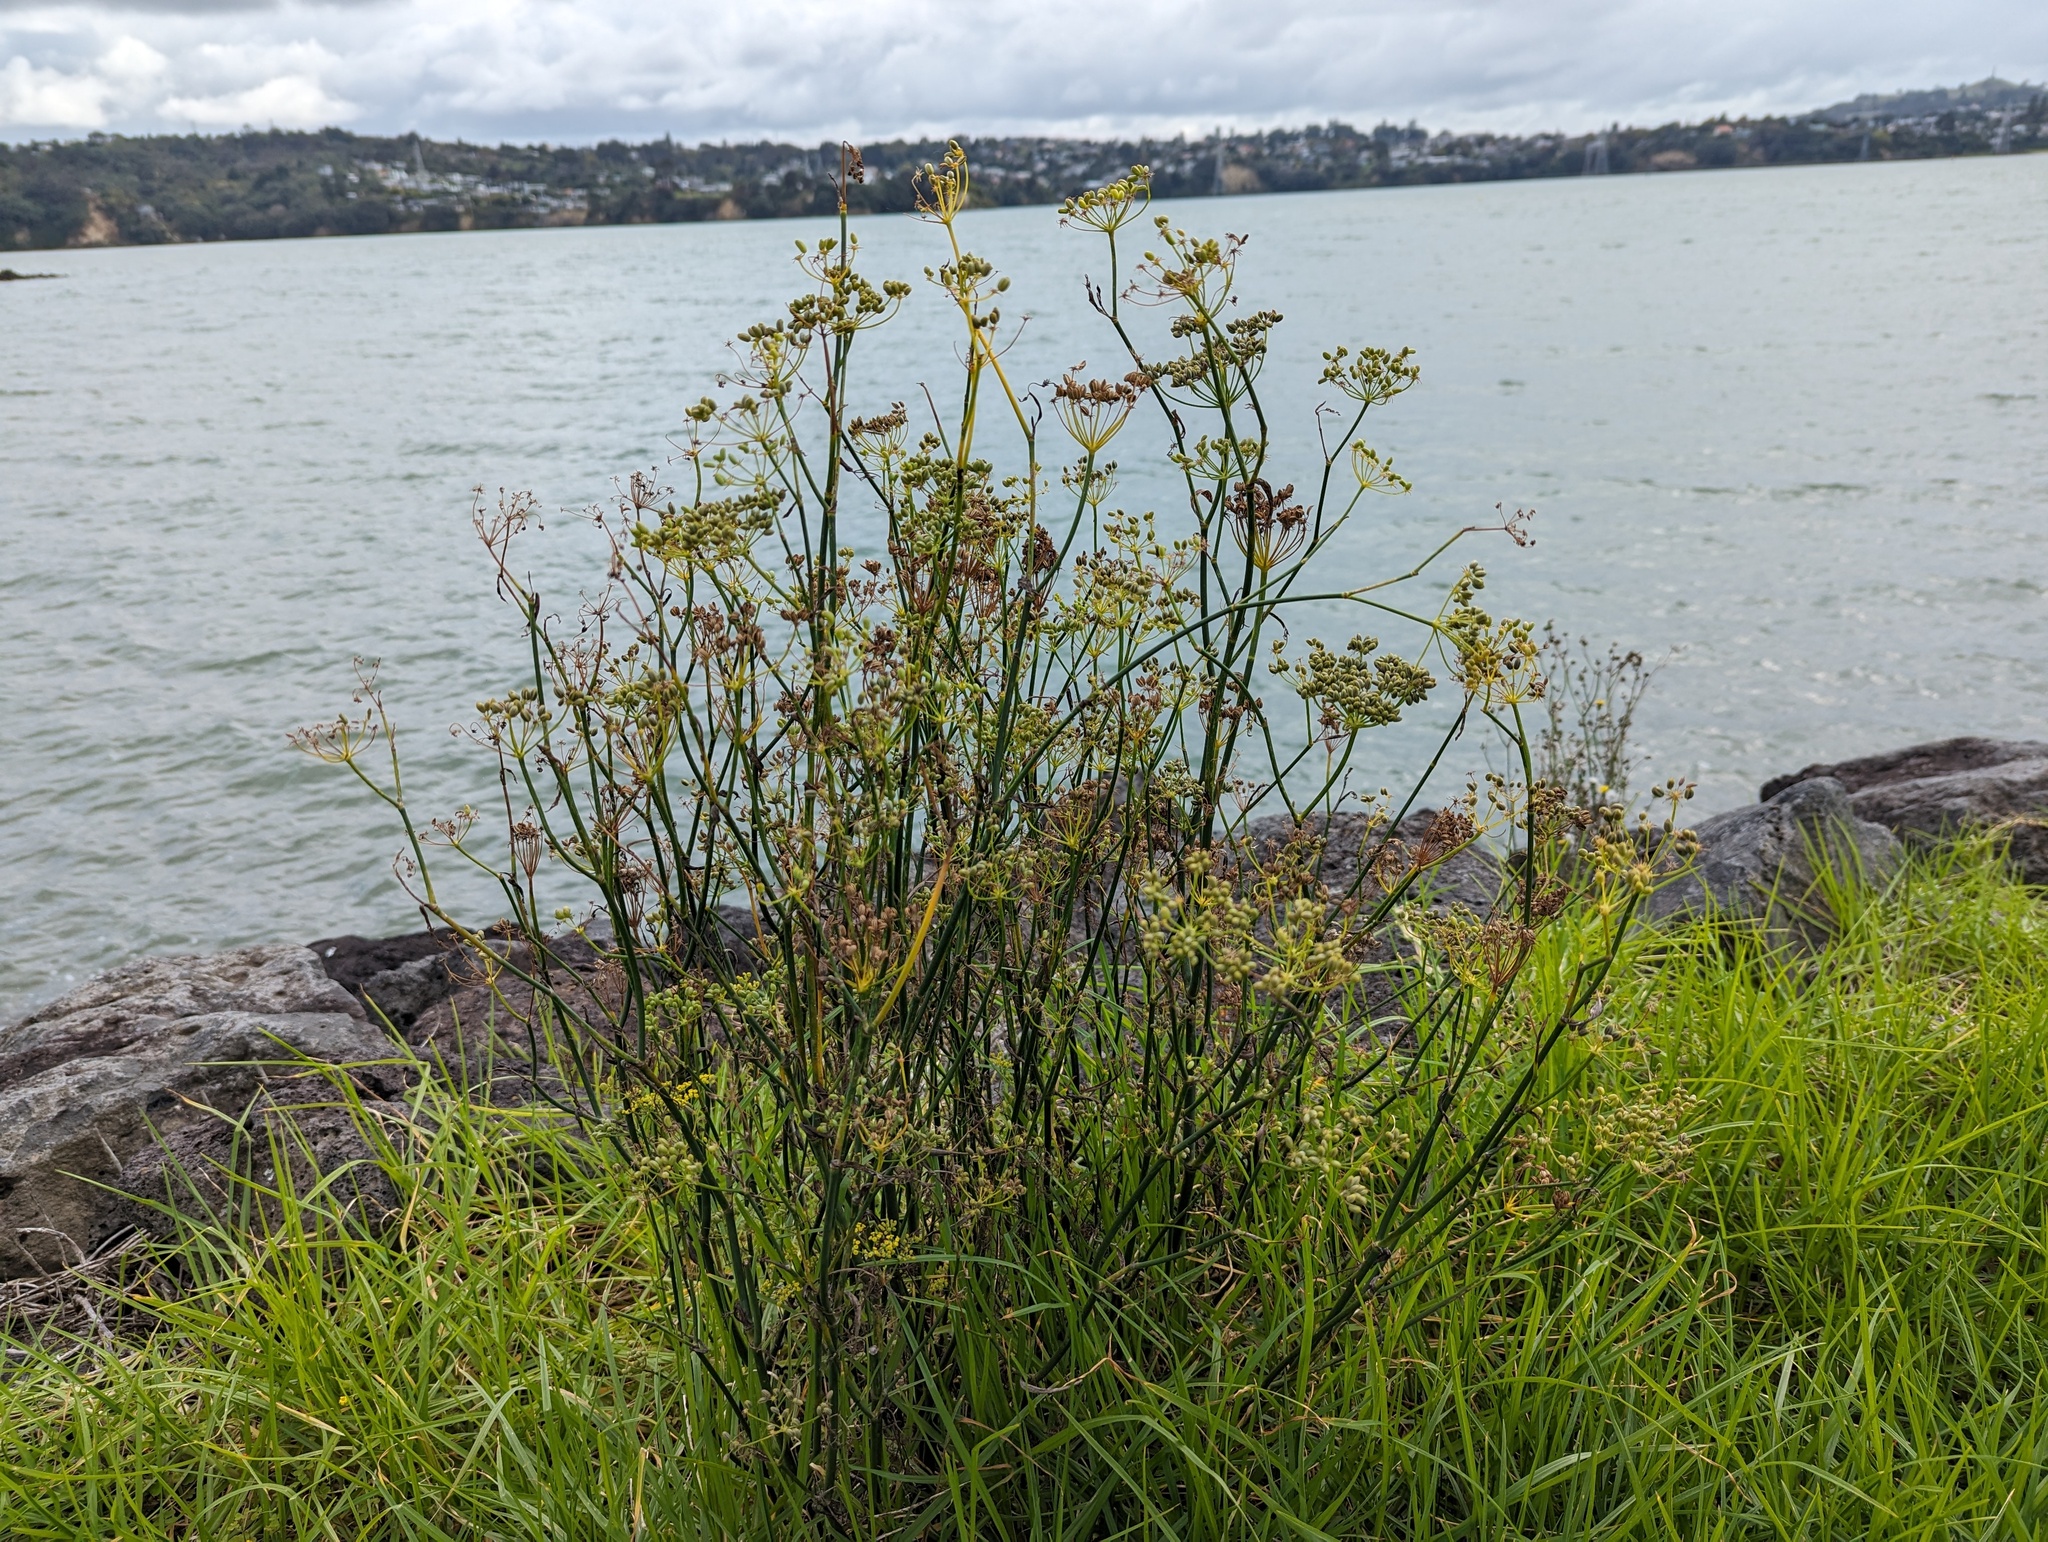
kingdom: Plantae
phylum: Tracheophyta
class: Magnoliopsida
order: Apiales
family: Apiaceae
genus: Foeniculum
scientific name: Foeniculum vulgare
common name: Fennel
